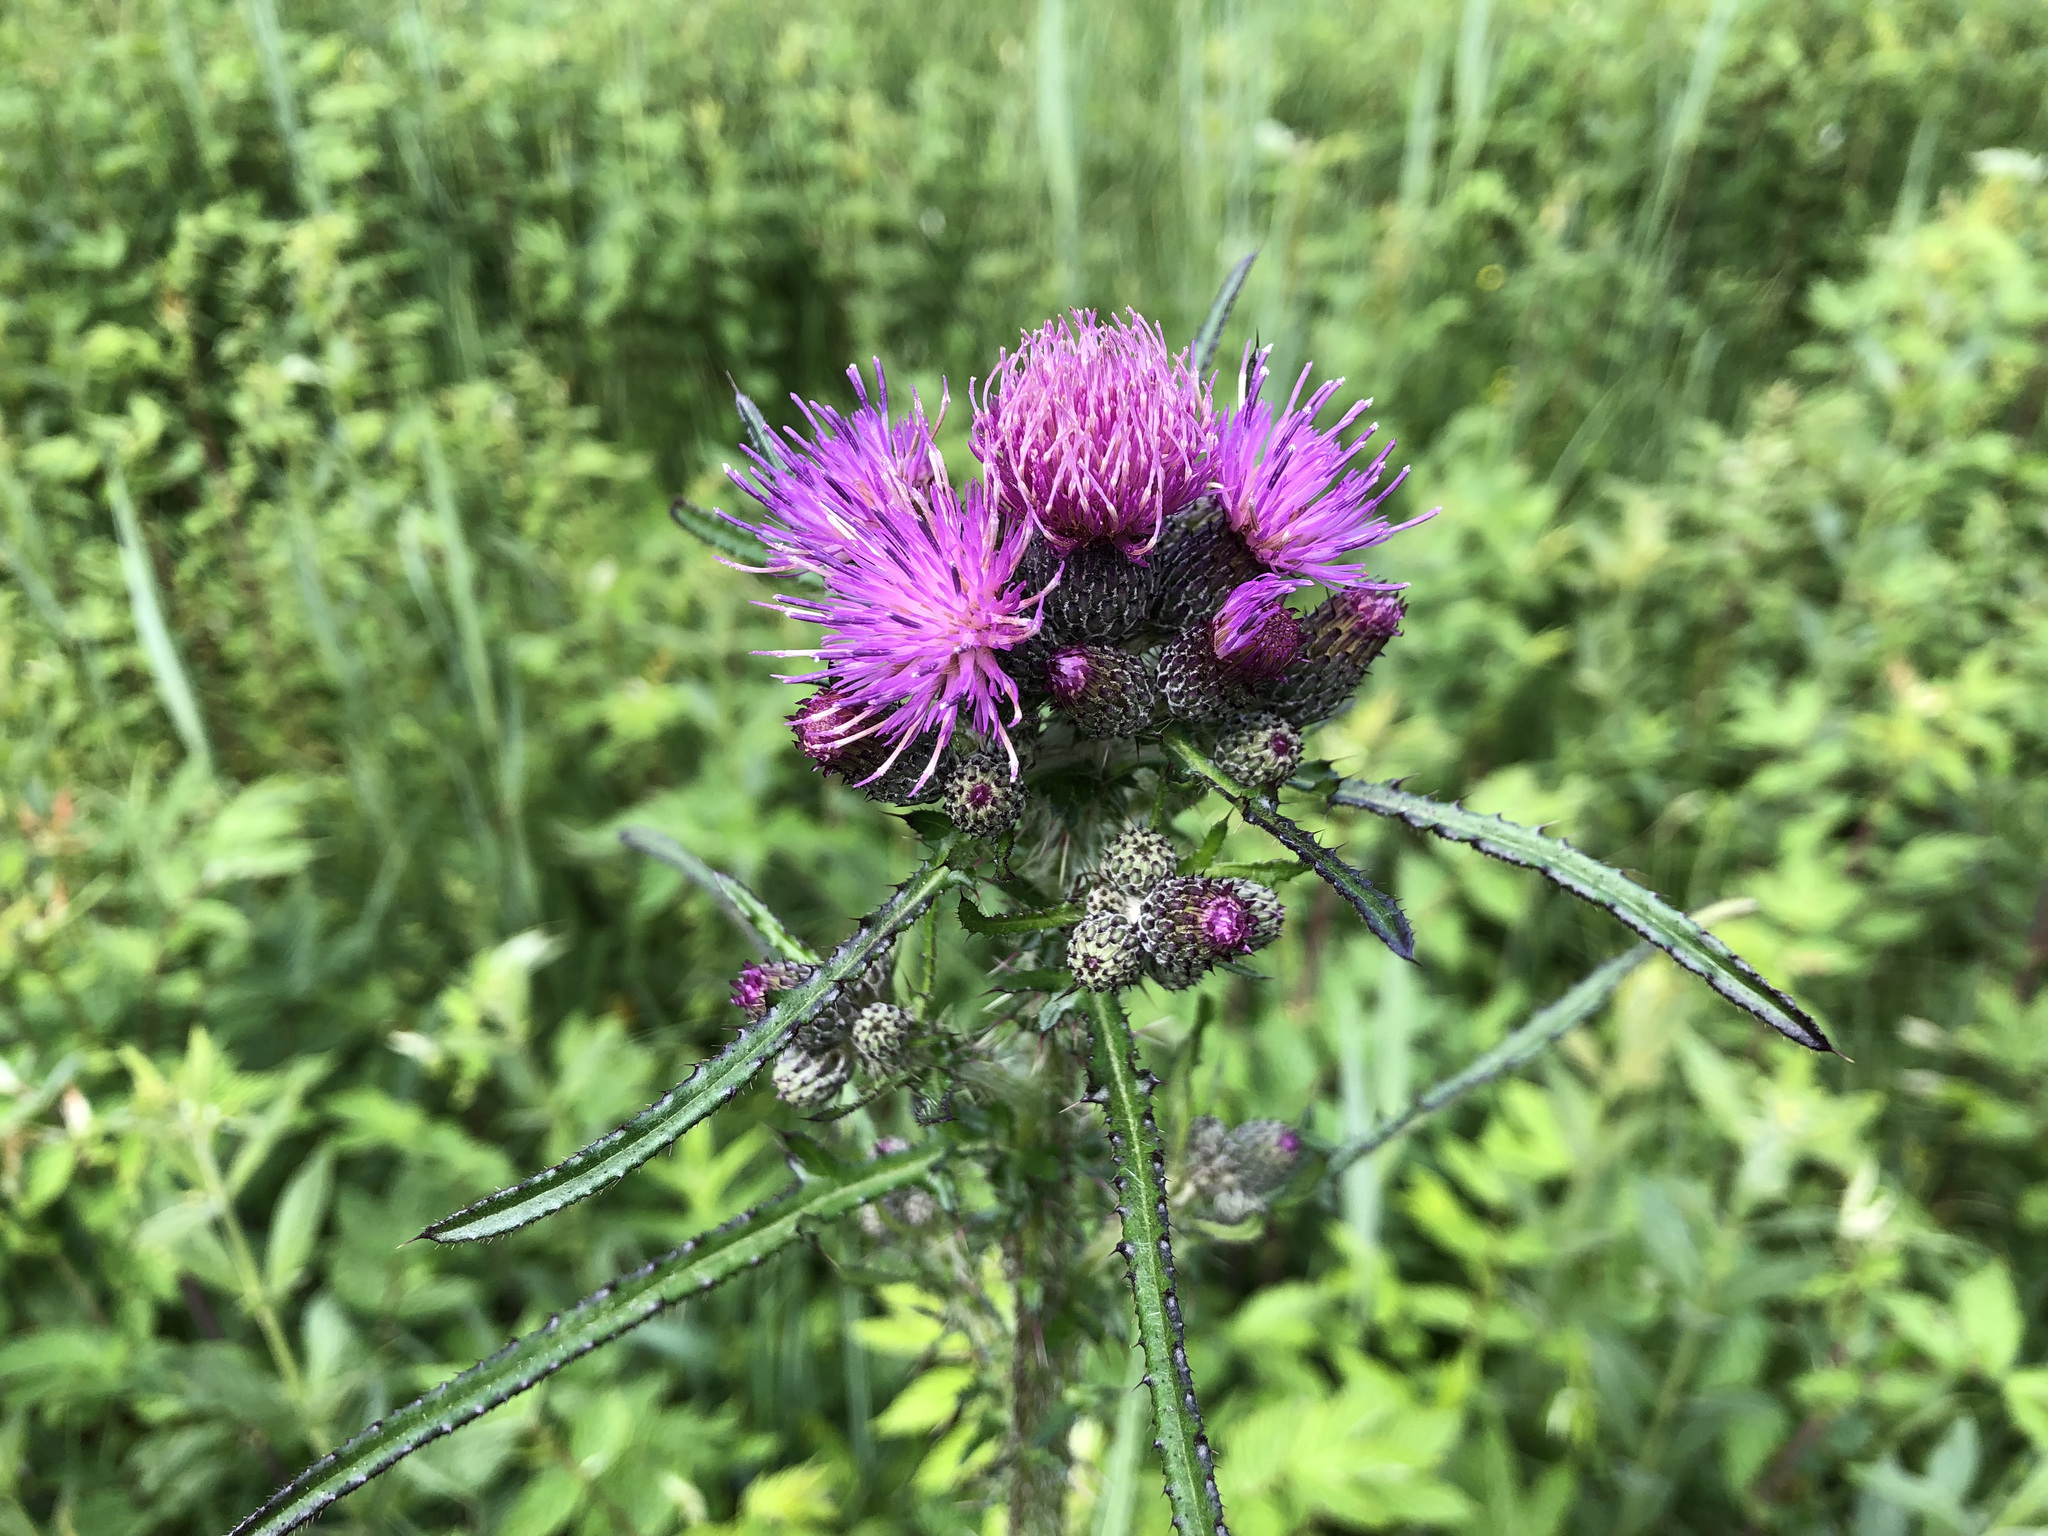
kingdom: Plantae
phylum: Tracheophyta
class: Magnoliopsida
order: Asterales
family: Asteraceae
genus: Cirsium
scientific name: Cirsium palustre
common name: Marsh thistle
